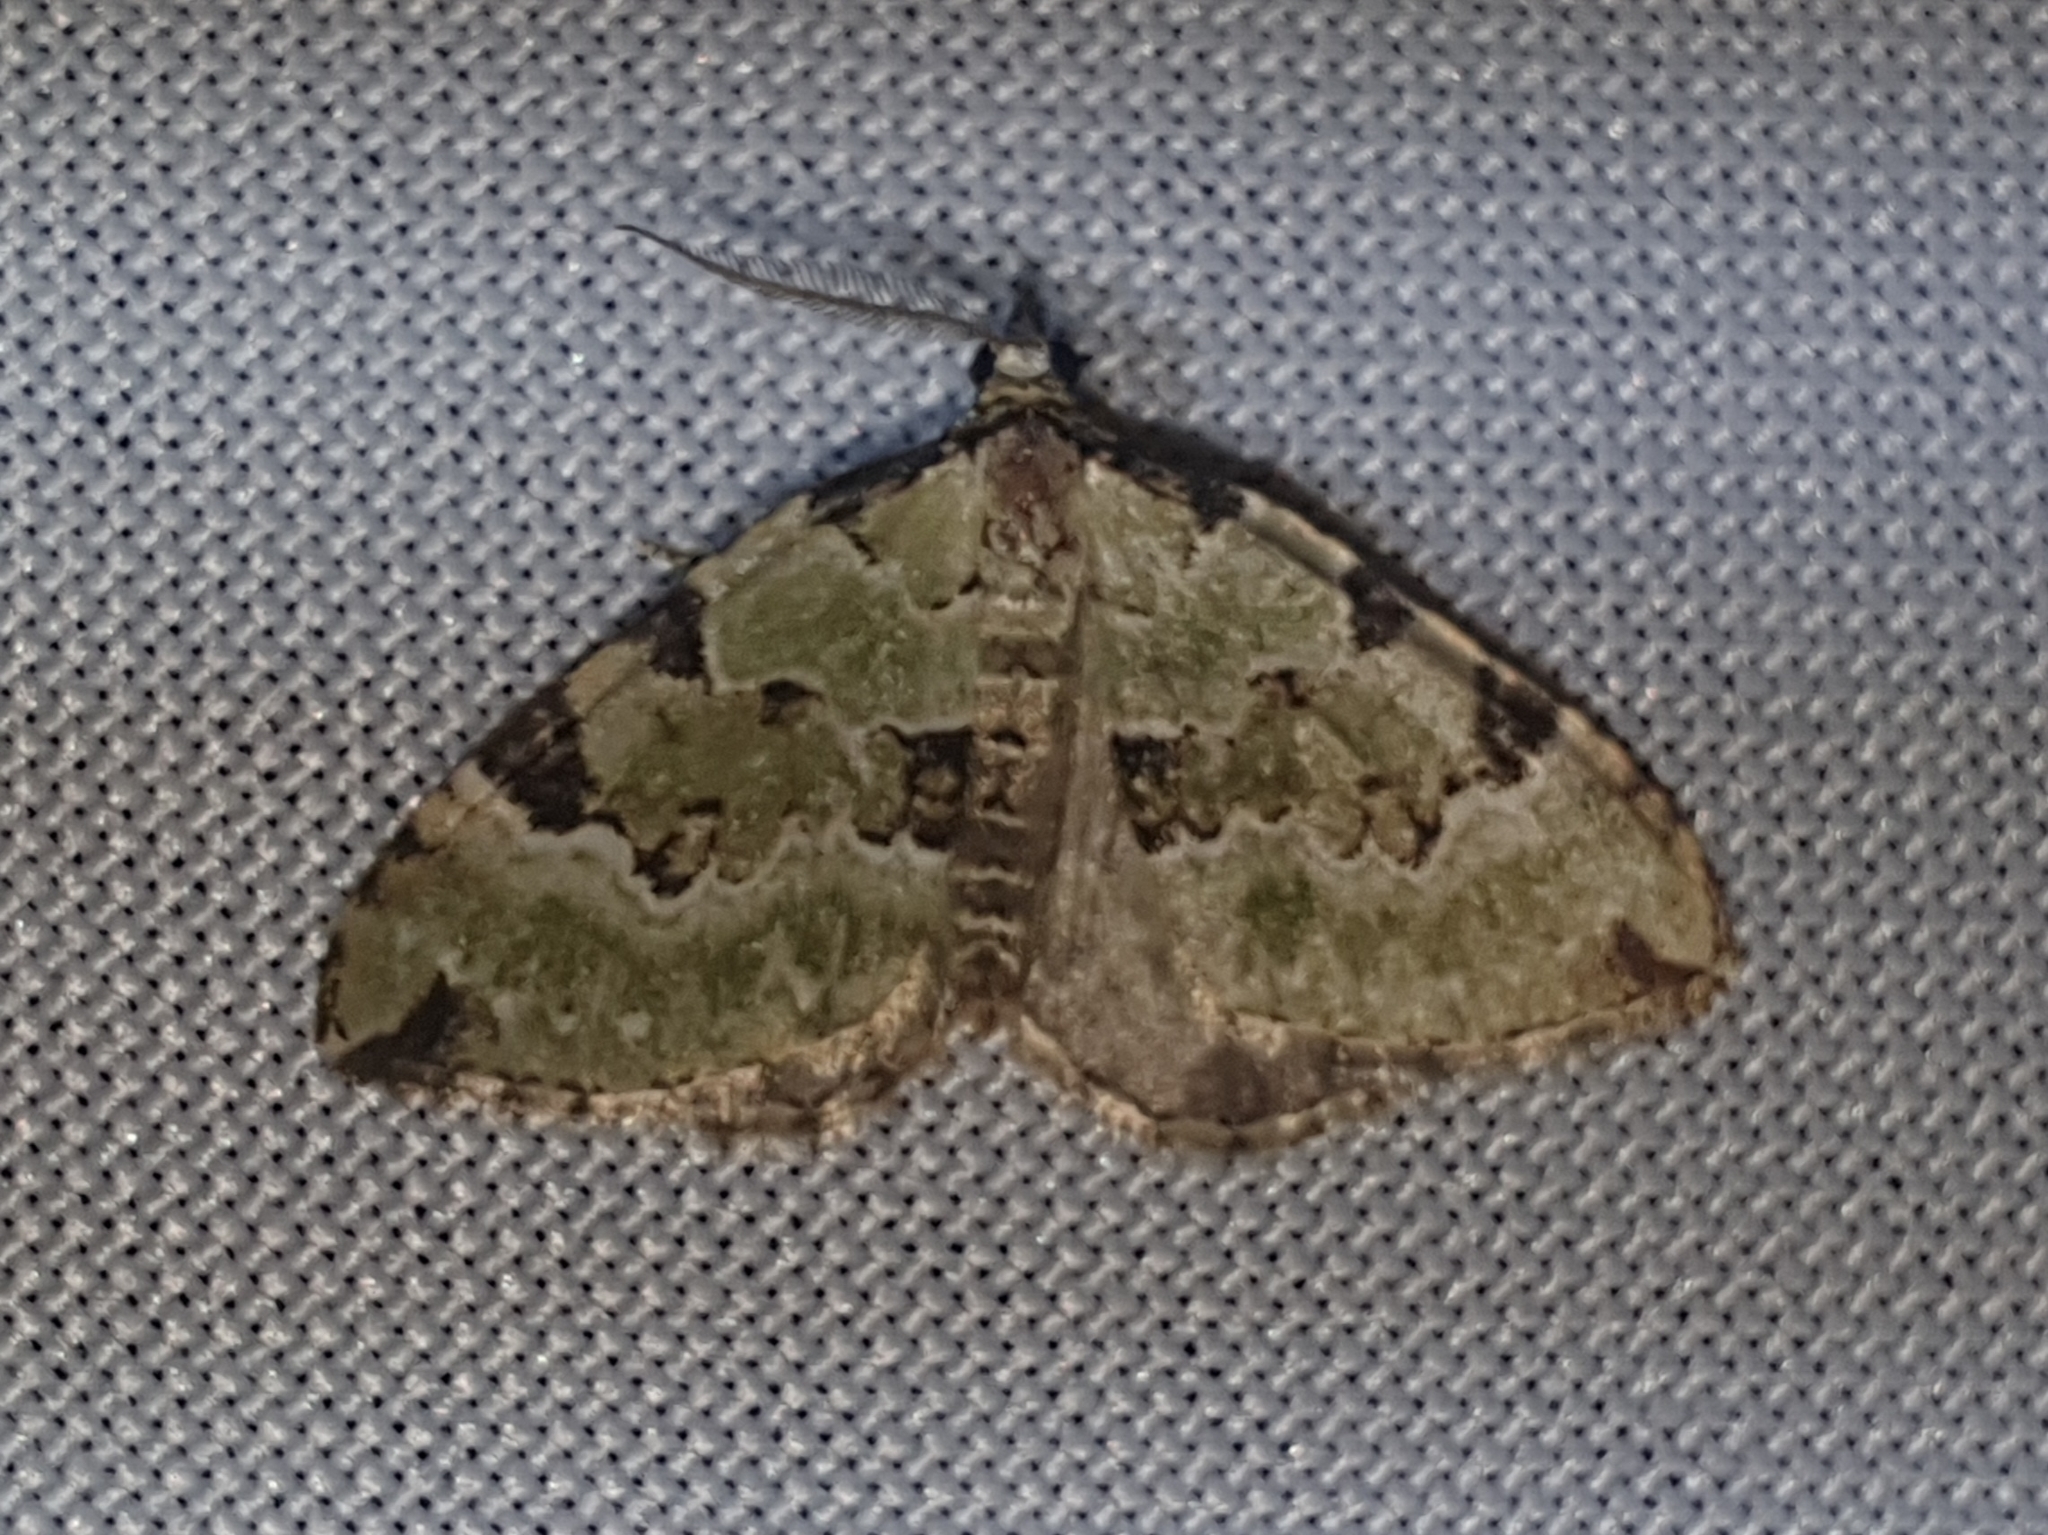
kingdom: Animalia
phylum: Arthropoda
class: Insecta
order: Lepidoptera
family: Geometridae
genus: Colostygia
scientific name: Colostygia pectinataria
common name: Green carpet
